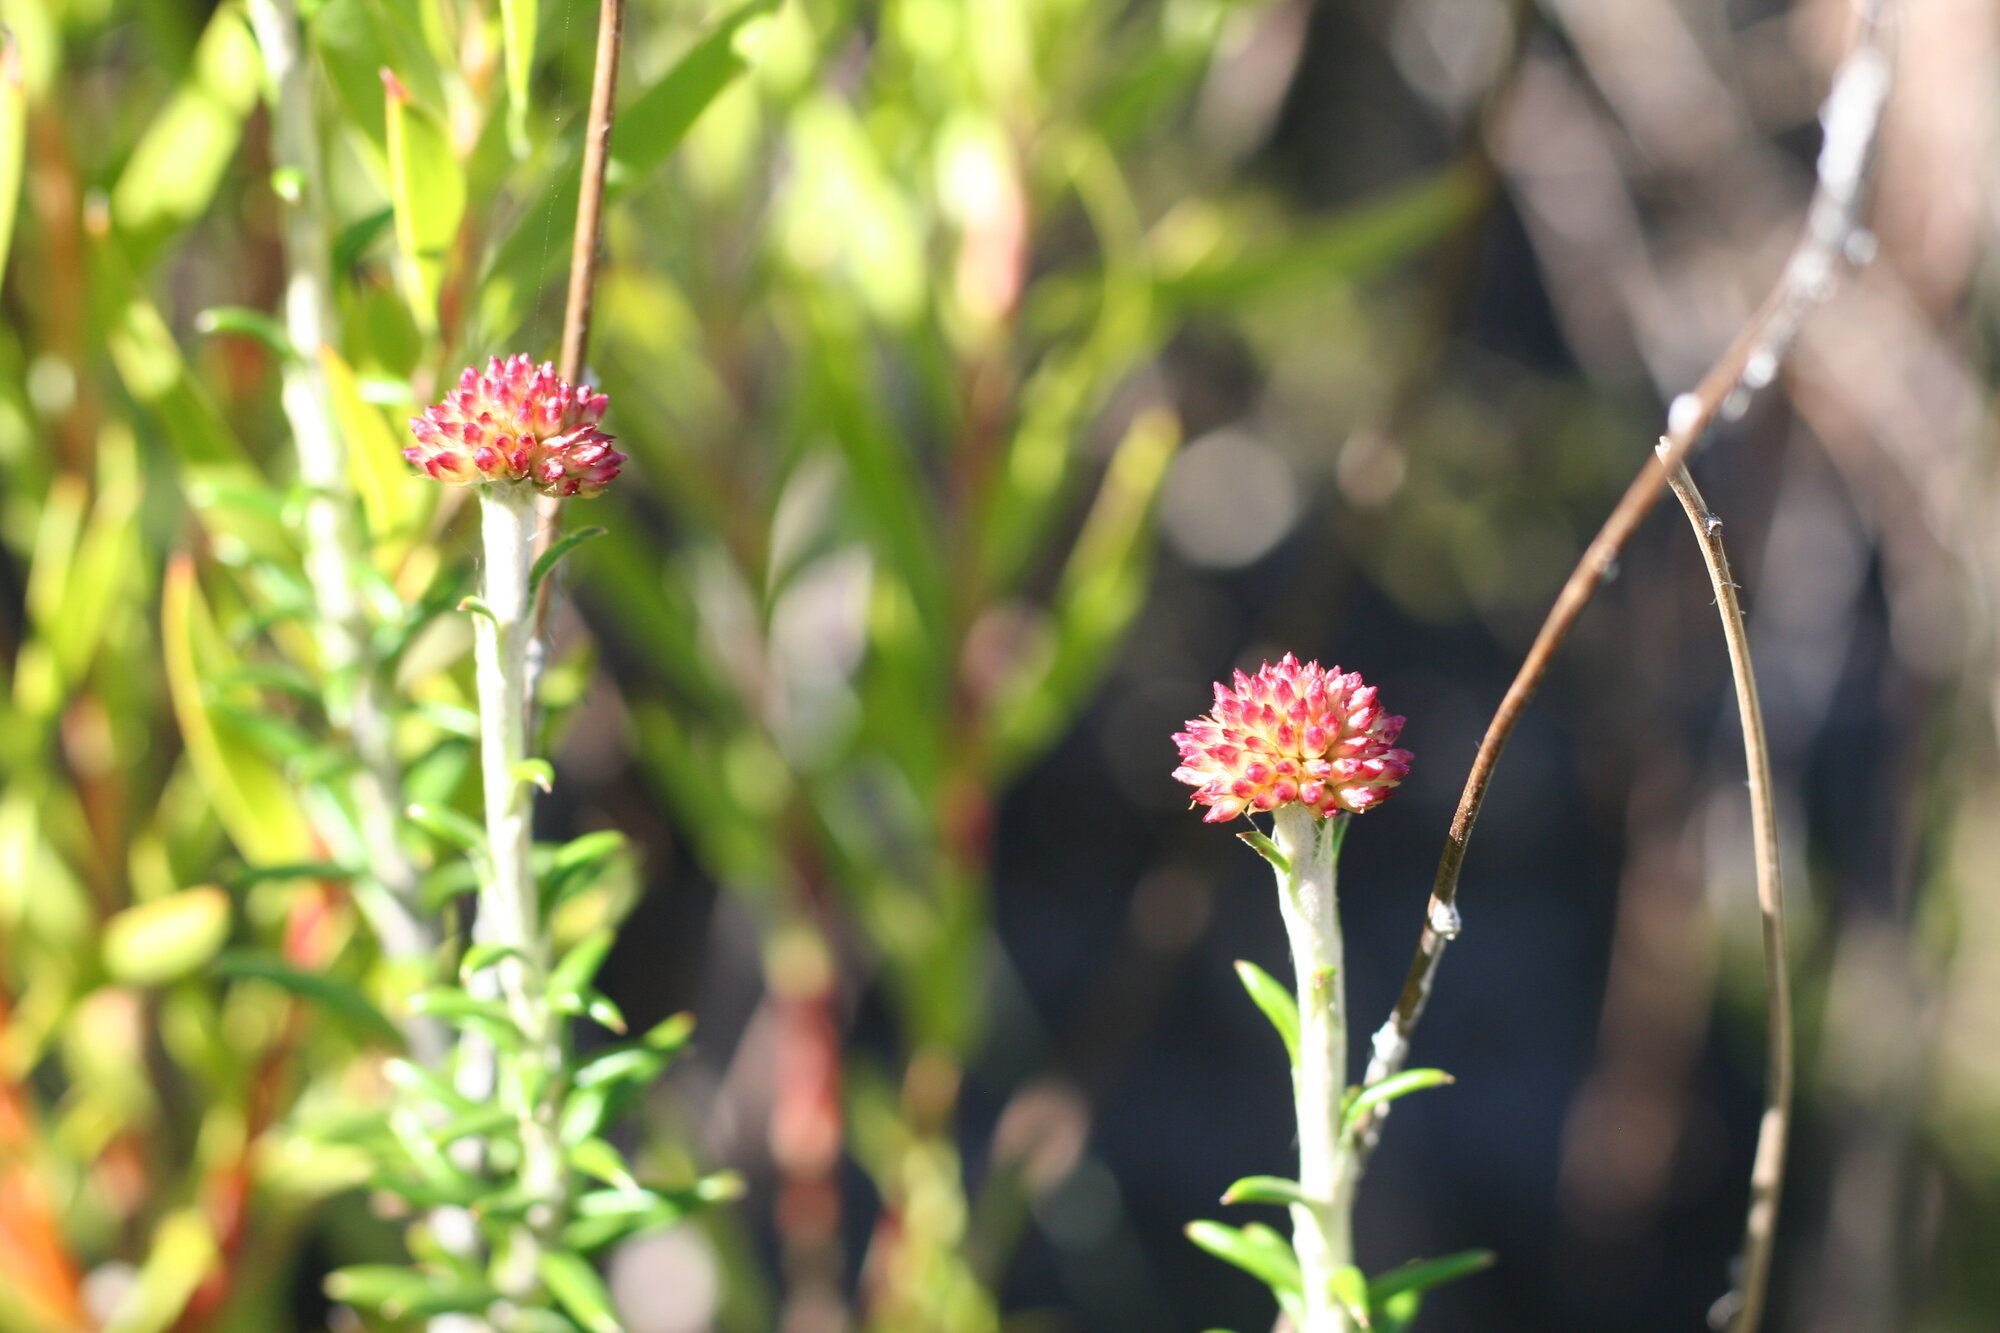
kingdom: Plantae
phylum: Tracheophyta
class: Magnoliopsida
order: Asterales
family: Asteraceae
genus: Anaxeton
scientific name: Anaxeton arborescens
